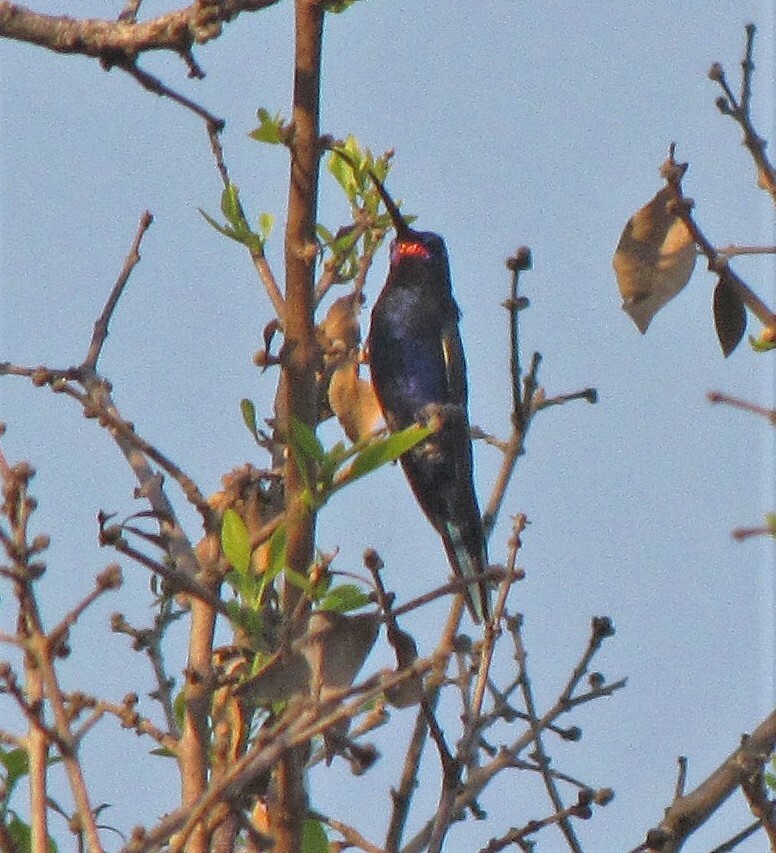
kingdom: Animalia
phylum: Chordata
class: Aves
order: Apodiformes
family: Trochilidae
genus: Heliomaster
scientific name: Heliomaster furcifer
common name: Blue-tufted starthroat
